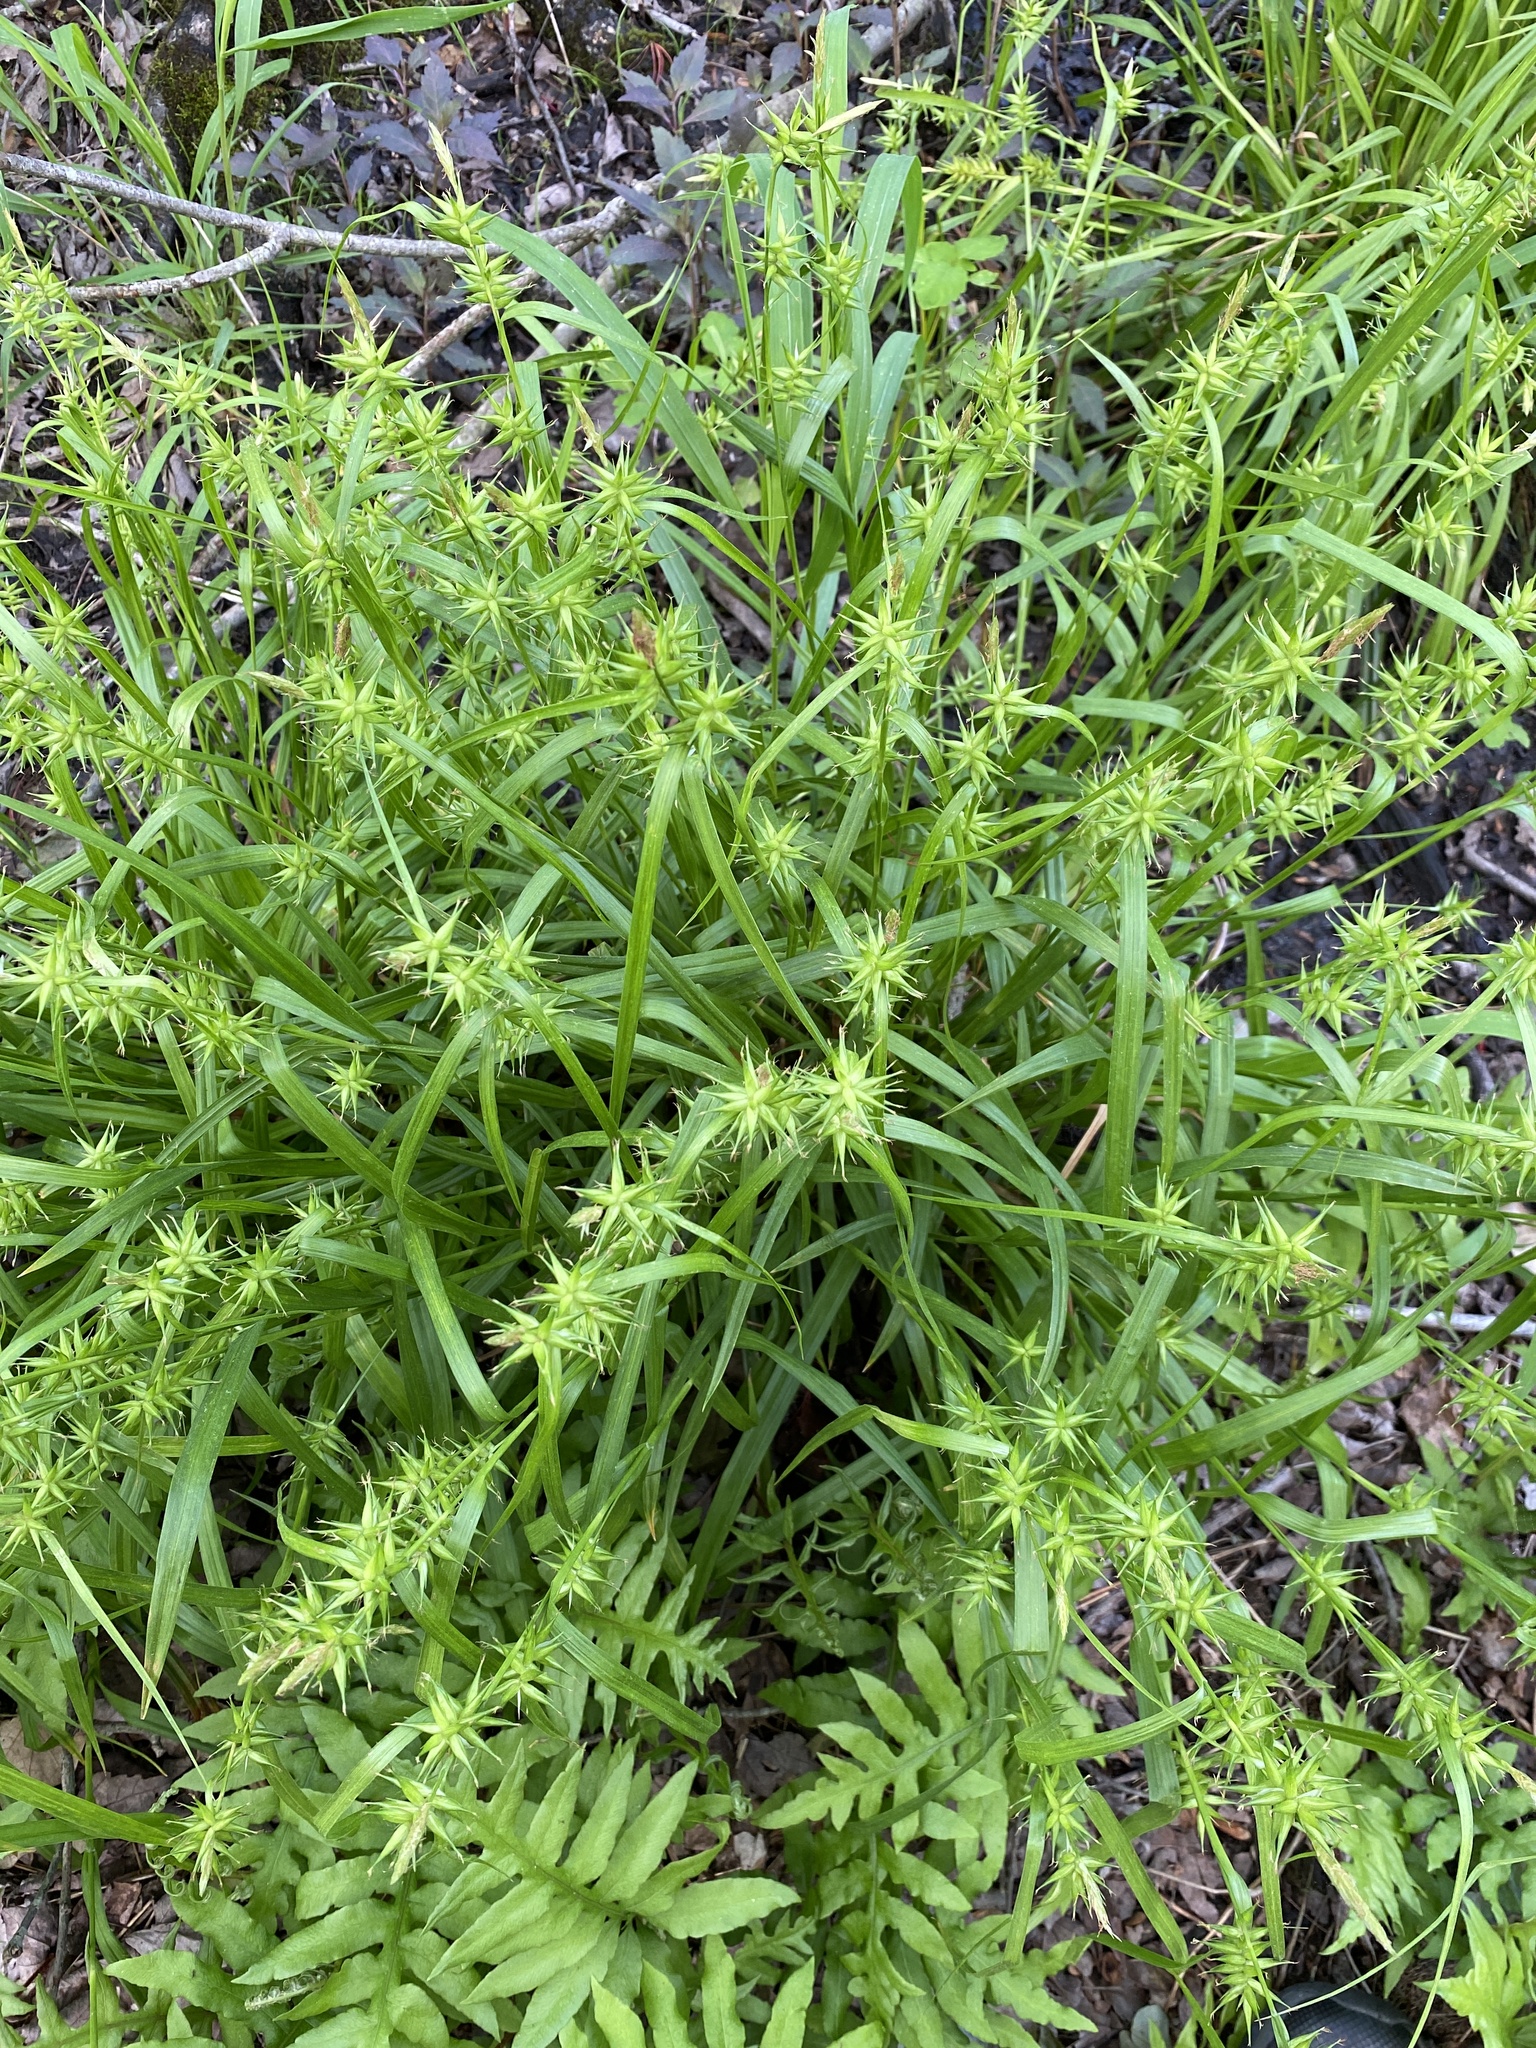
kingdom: Plantae
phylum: Tracheophyta
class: Liliopsida
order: Poales
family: Cyperaceae
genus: Carex
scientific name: Carex folliculata
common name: Northern long sedge
